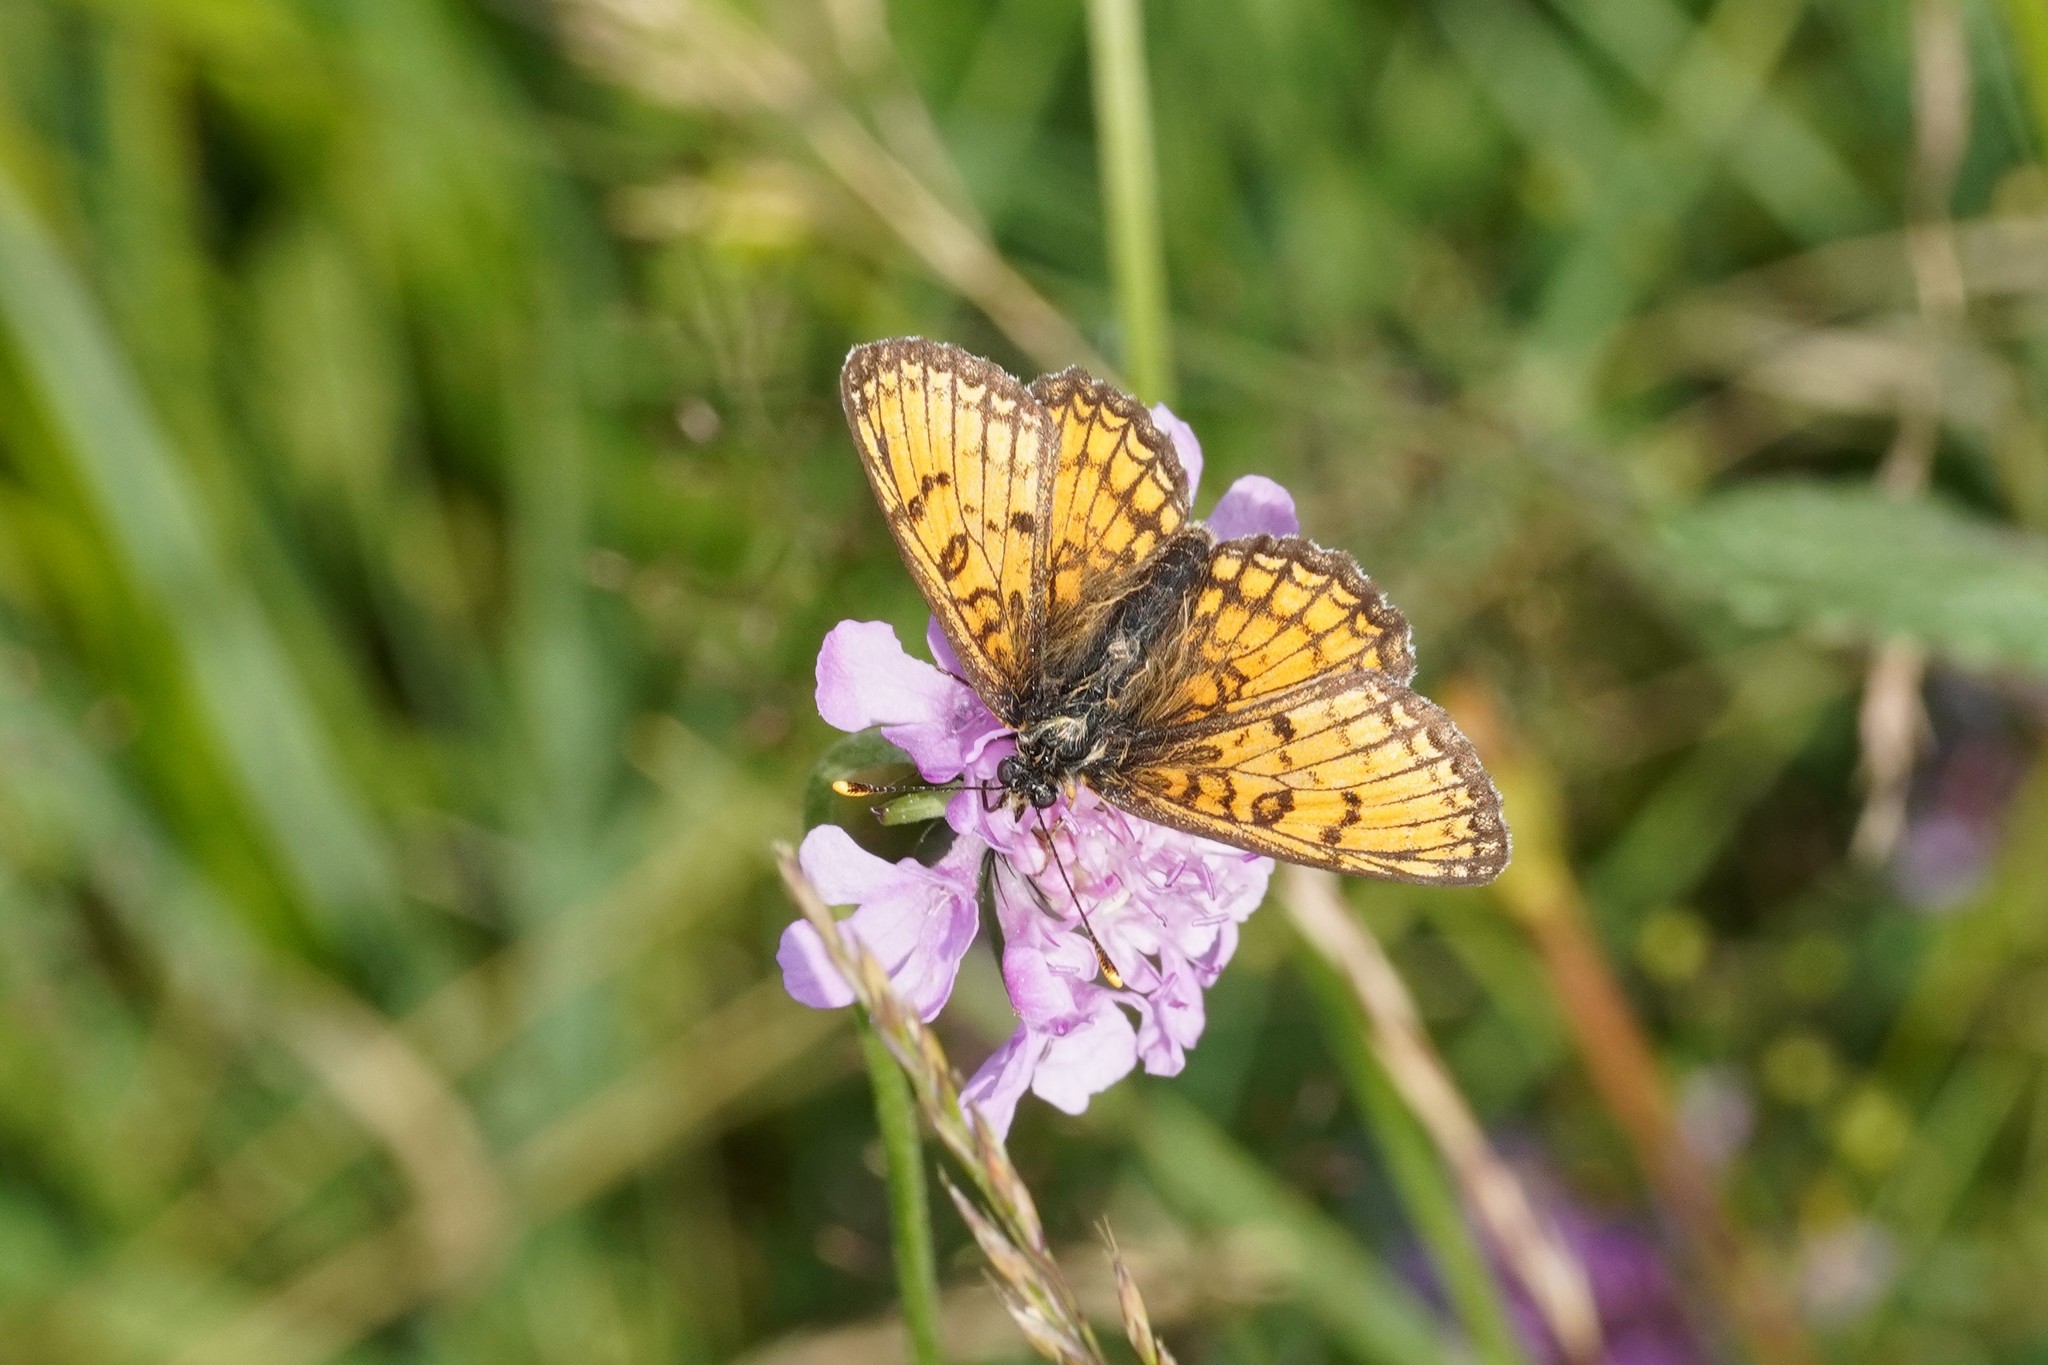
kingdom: Animalia
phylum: Arthropoda
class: Insecta
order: Lepidoptera
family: Nymphalidae
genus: Mellicta
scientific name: Mellicta parthenoides
